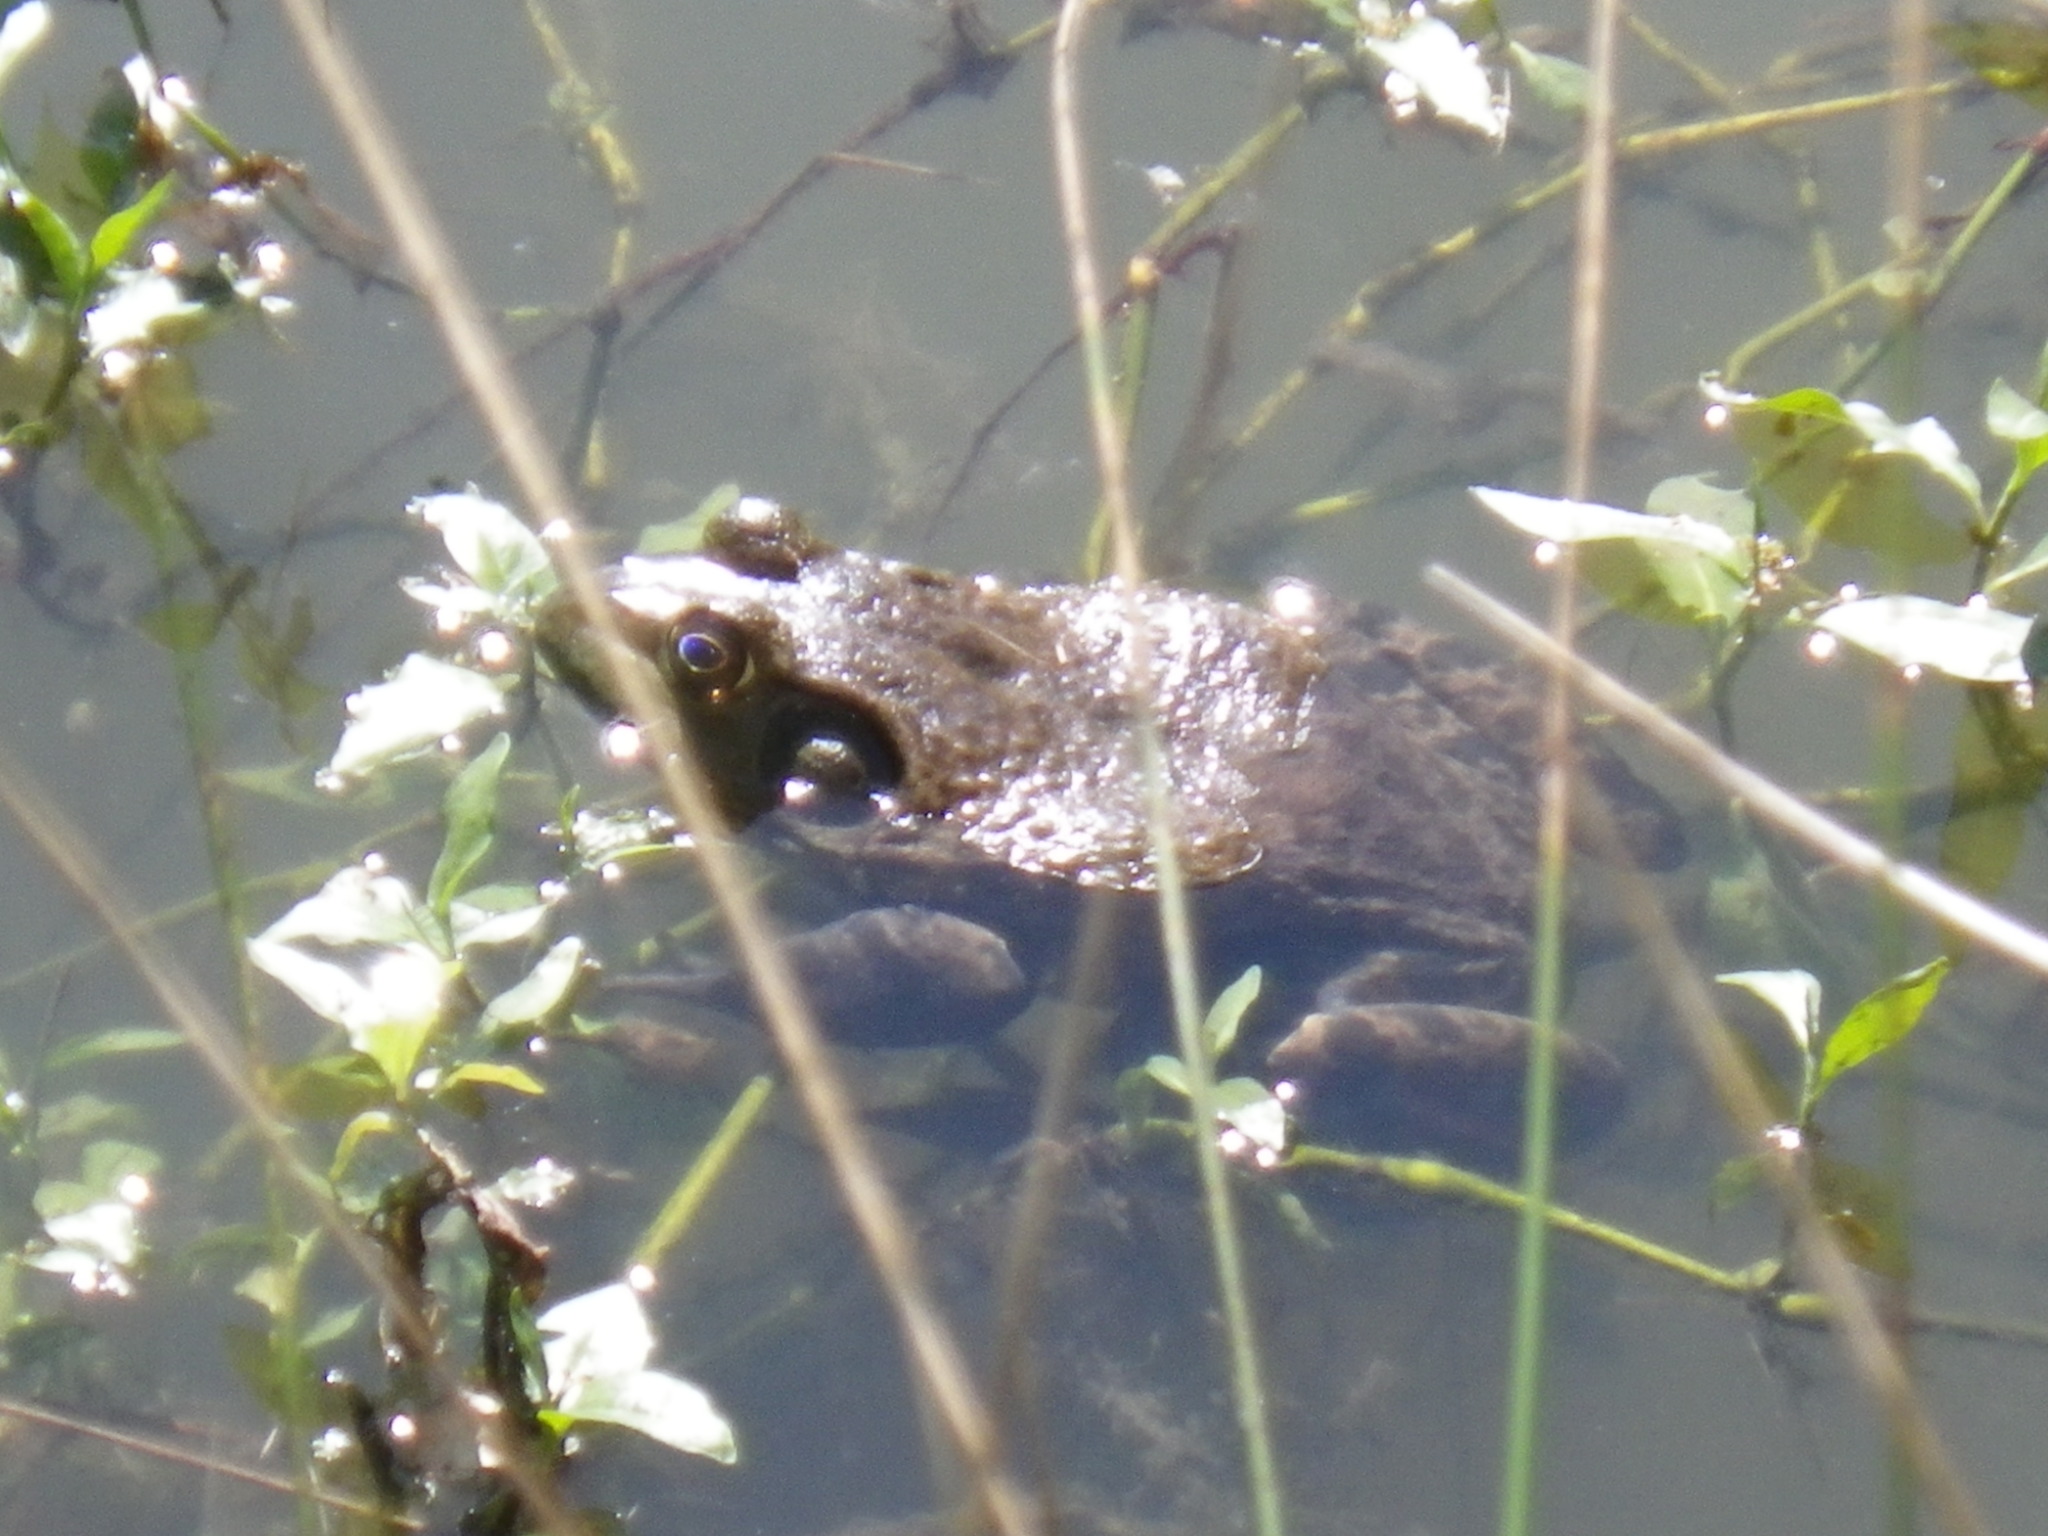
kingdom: Animalia
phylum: Chordata
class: Amphibia
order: Anura
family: Ranidae
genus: Lithobates
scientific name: Lithobates catesbeianus
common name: American bullfrog
